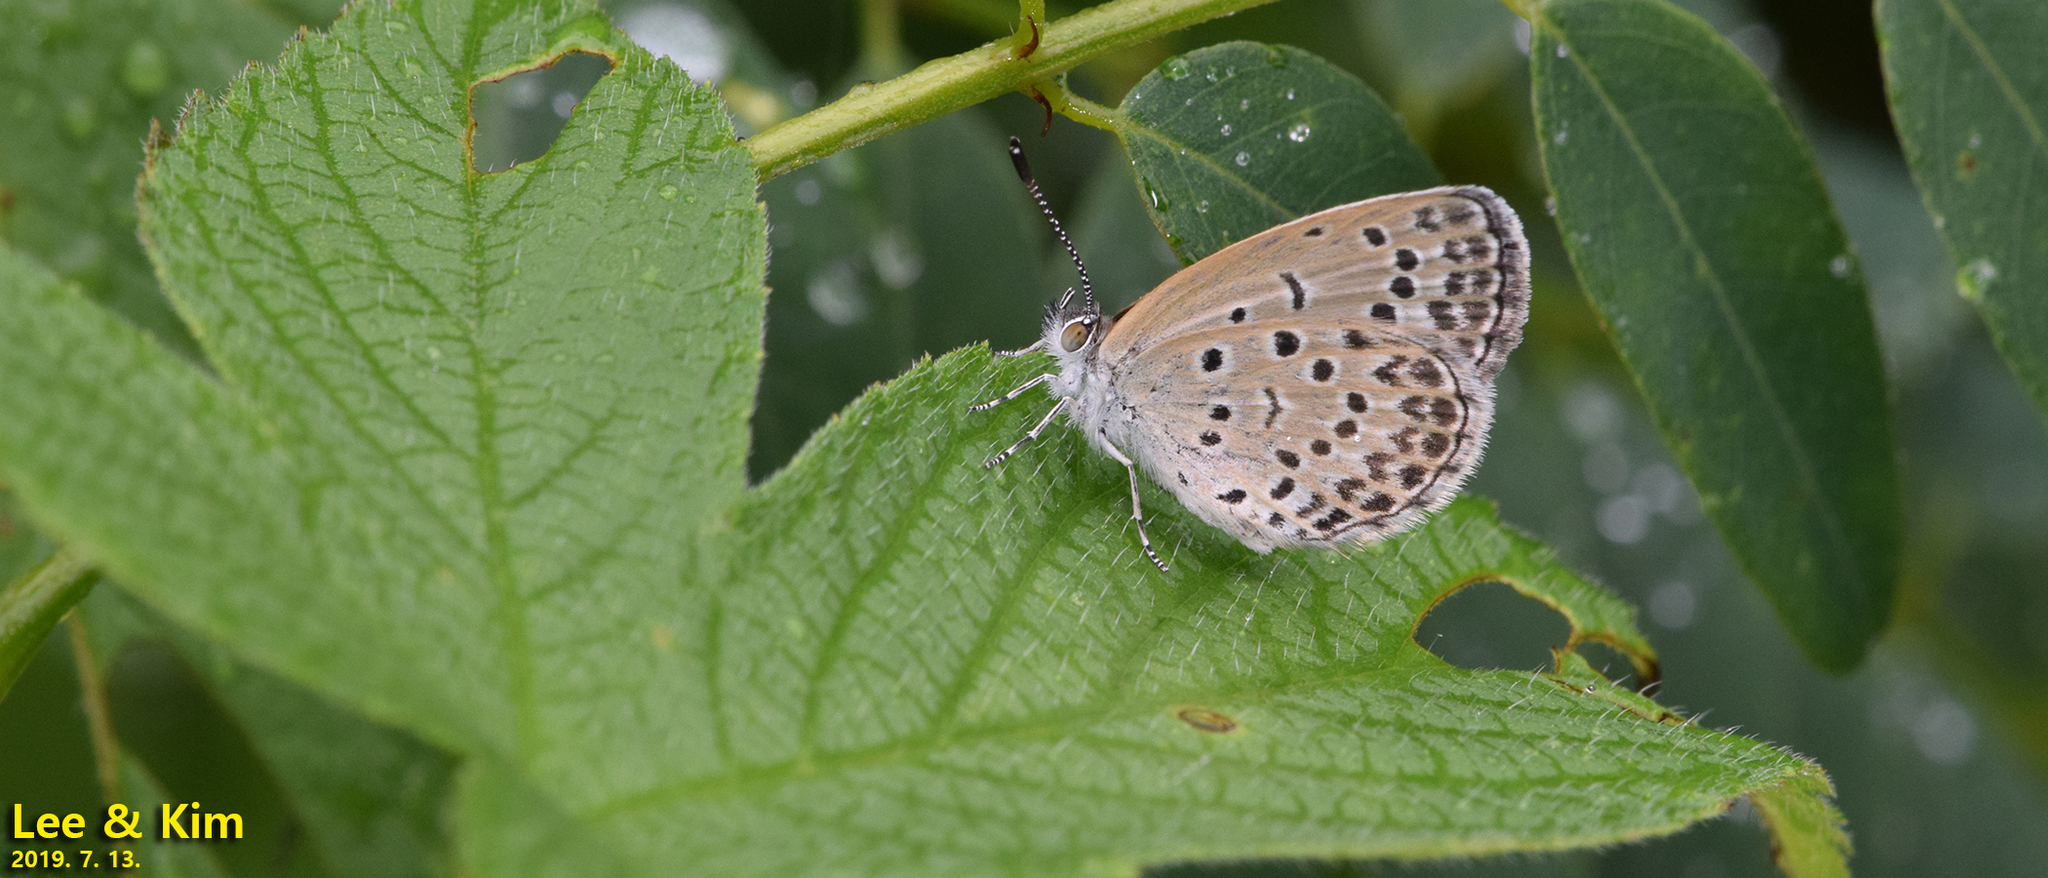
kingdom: Animalia
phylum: Arthropoda
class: Insecta
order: Lepidoptera
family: Lycaenidae
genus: Pseudozizeeria
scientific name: Pseudozizeeria maha
